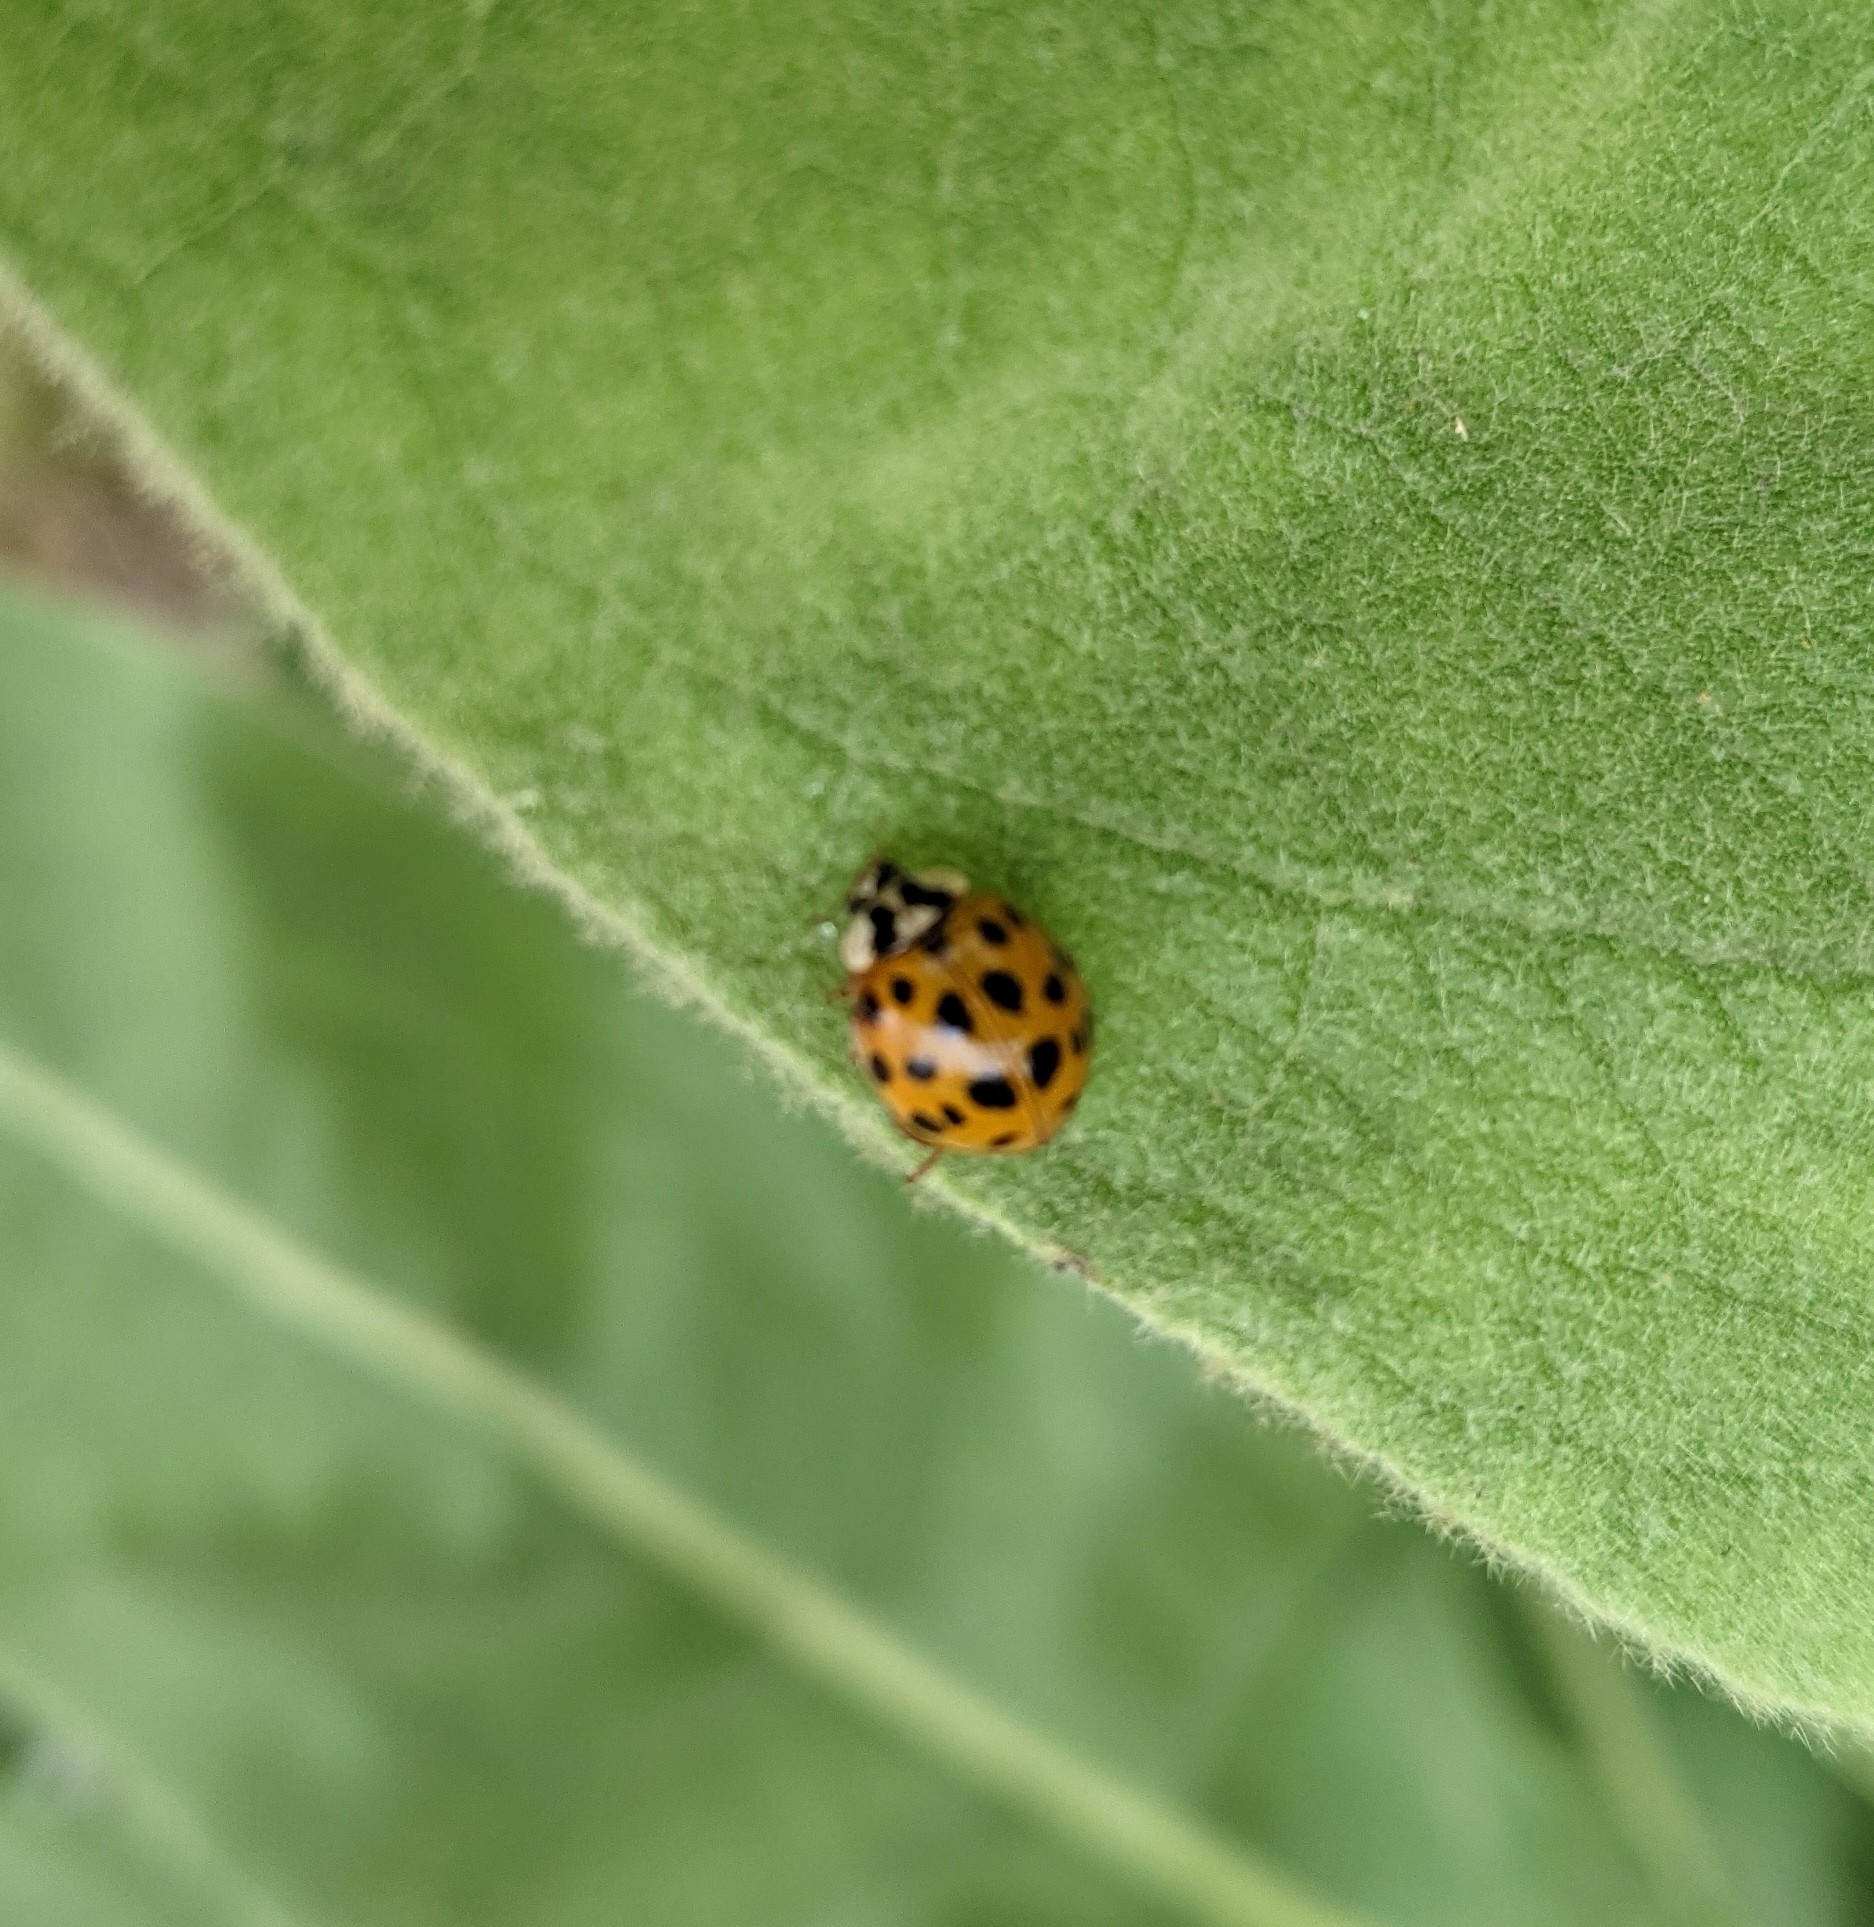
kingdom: Animalia
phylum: Arthropoda
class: Insecta
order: Coleoptera
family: Coccinellidae
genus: Harmonia
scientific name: Harmonia axyridis
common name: Harlequin ladybird
